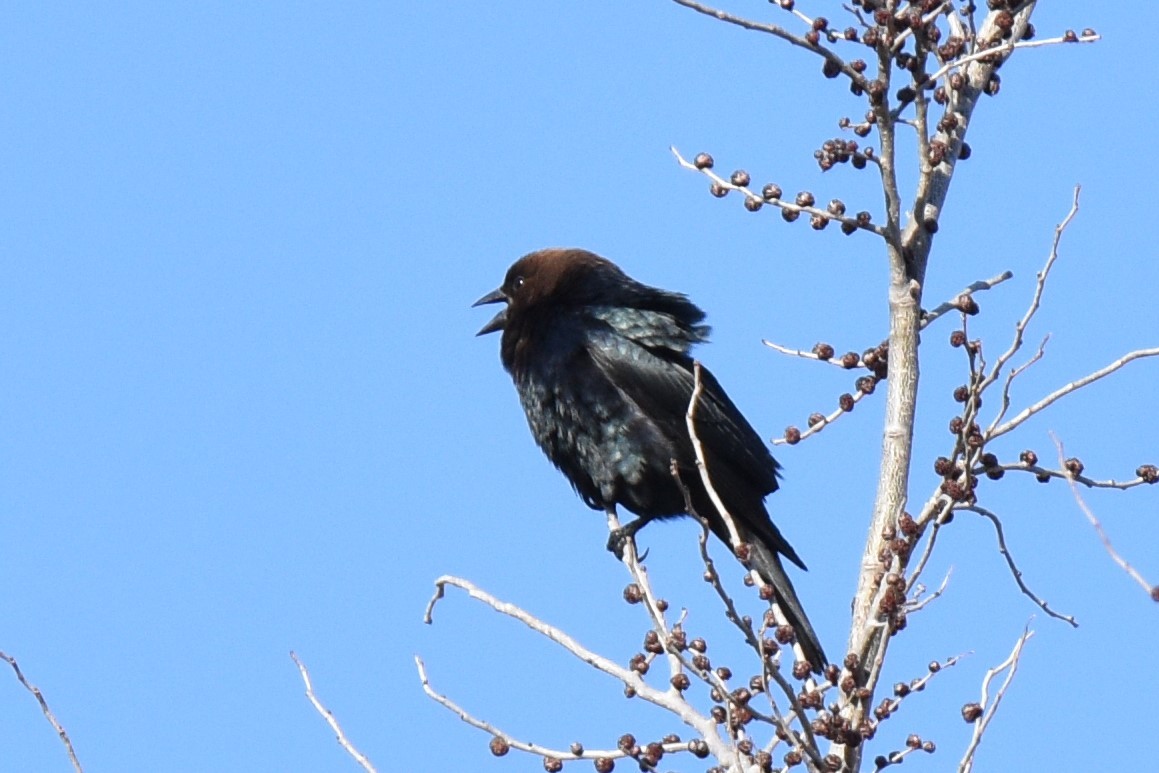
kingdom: Animalia
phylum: Chordata
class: Aves
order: Passeriformes
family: Icteridae
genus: Molothrus
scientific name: Molothrus ater
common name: Brown-headed cowbird
